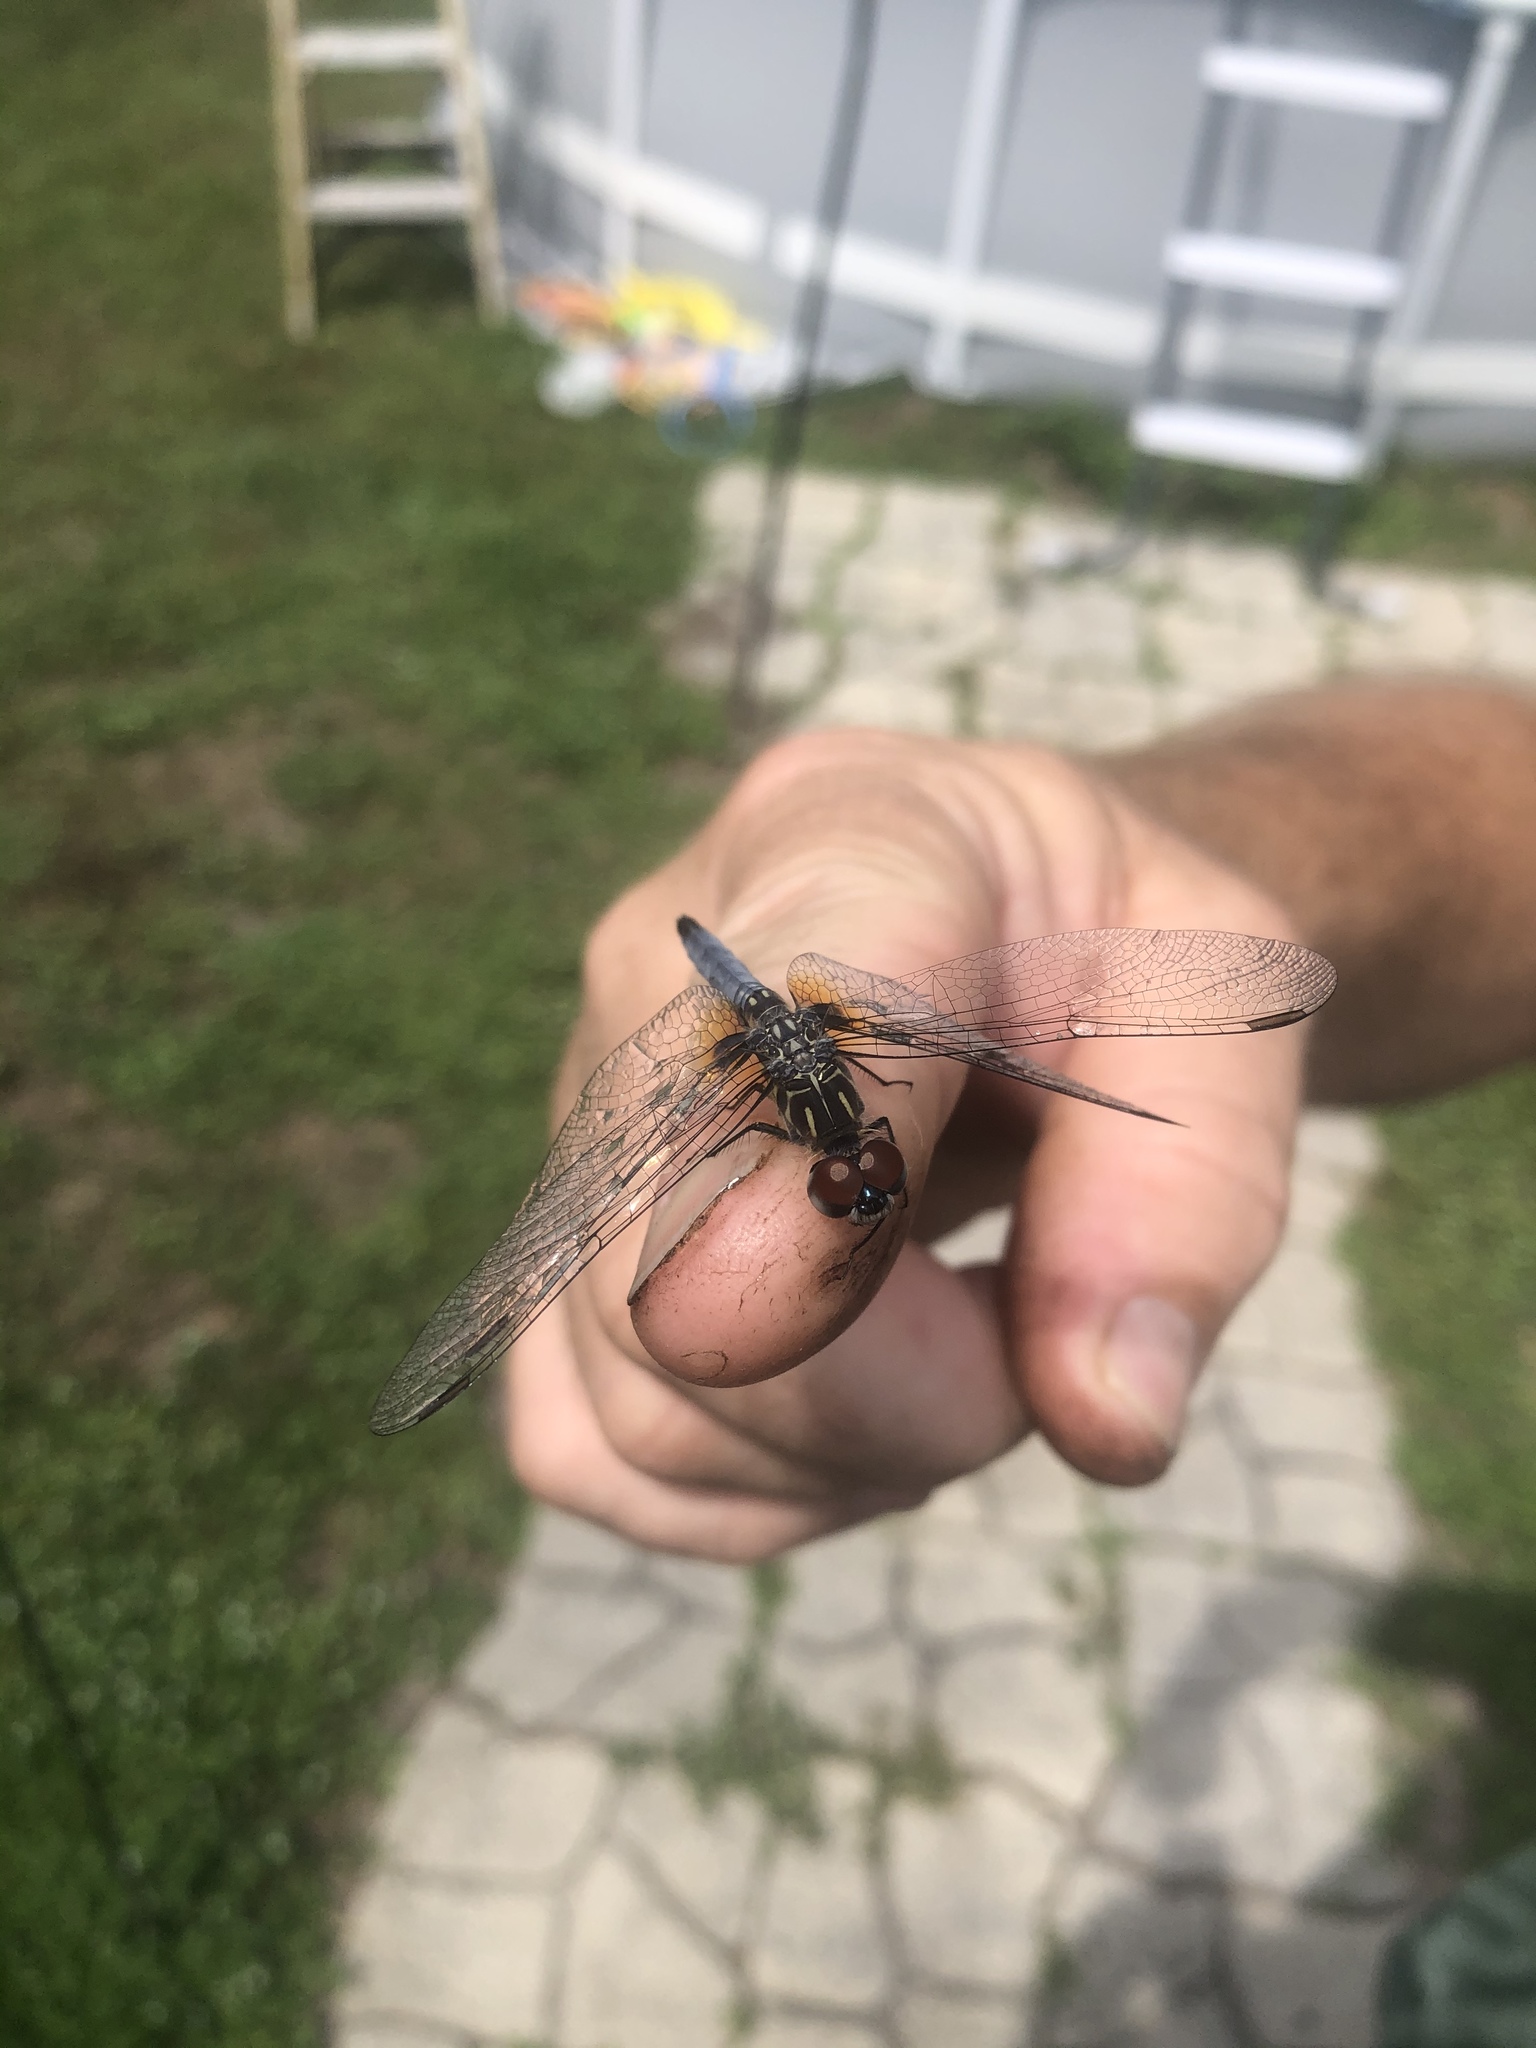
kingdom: Animalia
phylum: Arthropoda
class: Insecta
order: Odonata
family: Libellulidae
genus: Pachydiplax
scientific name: Pachydiplax longipennis
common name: Blue dasher
